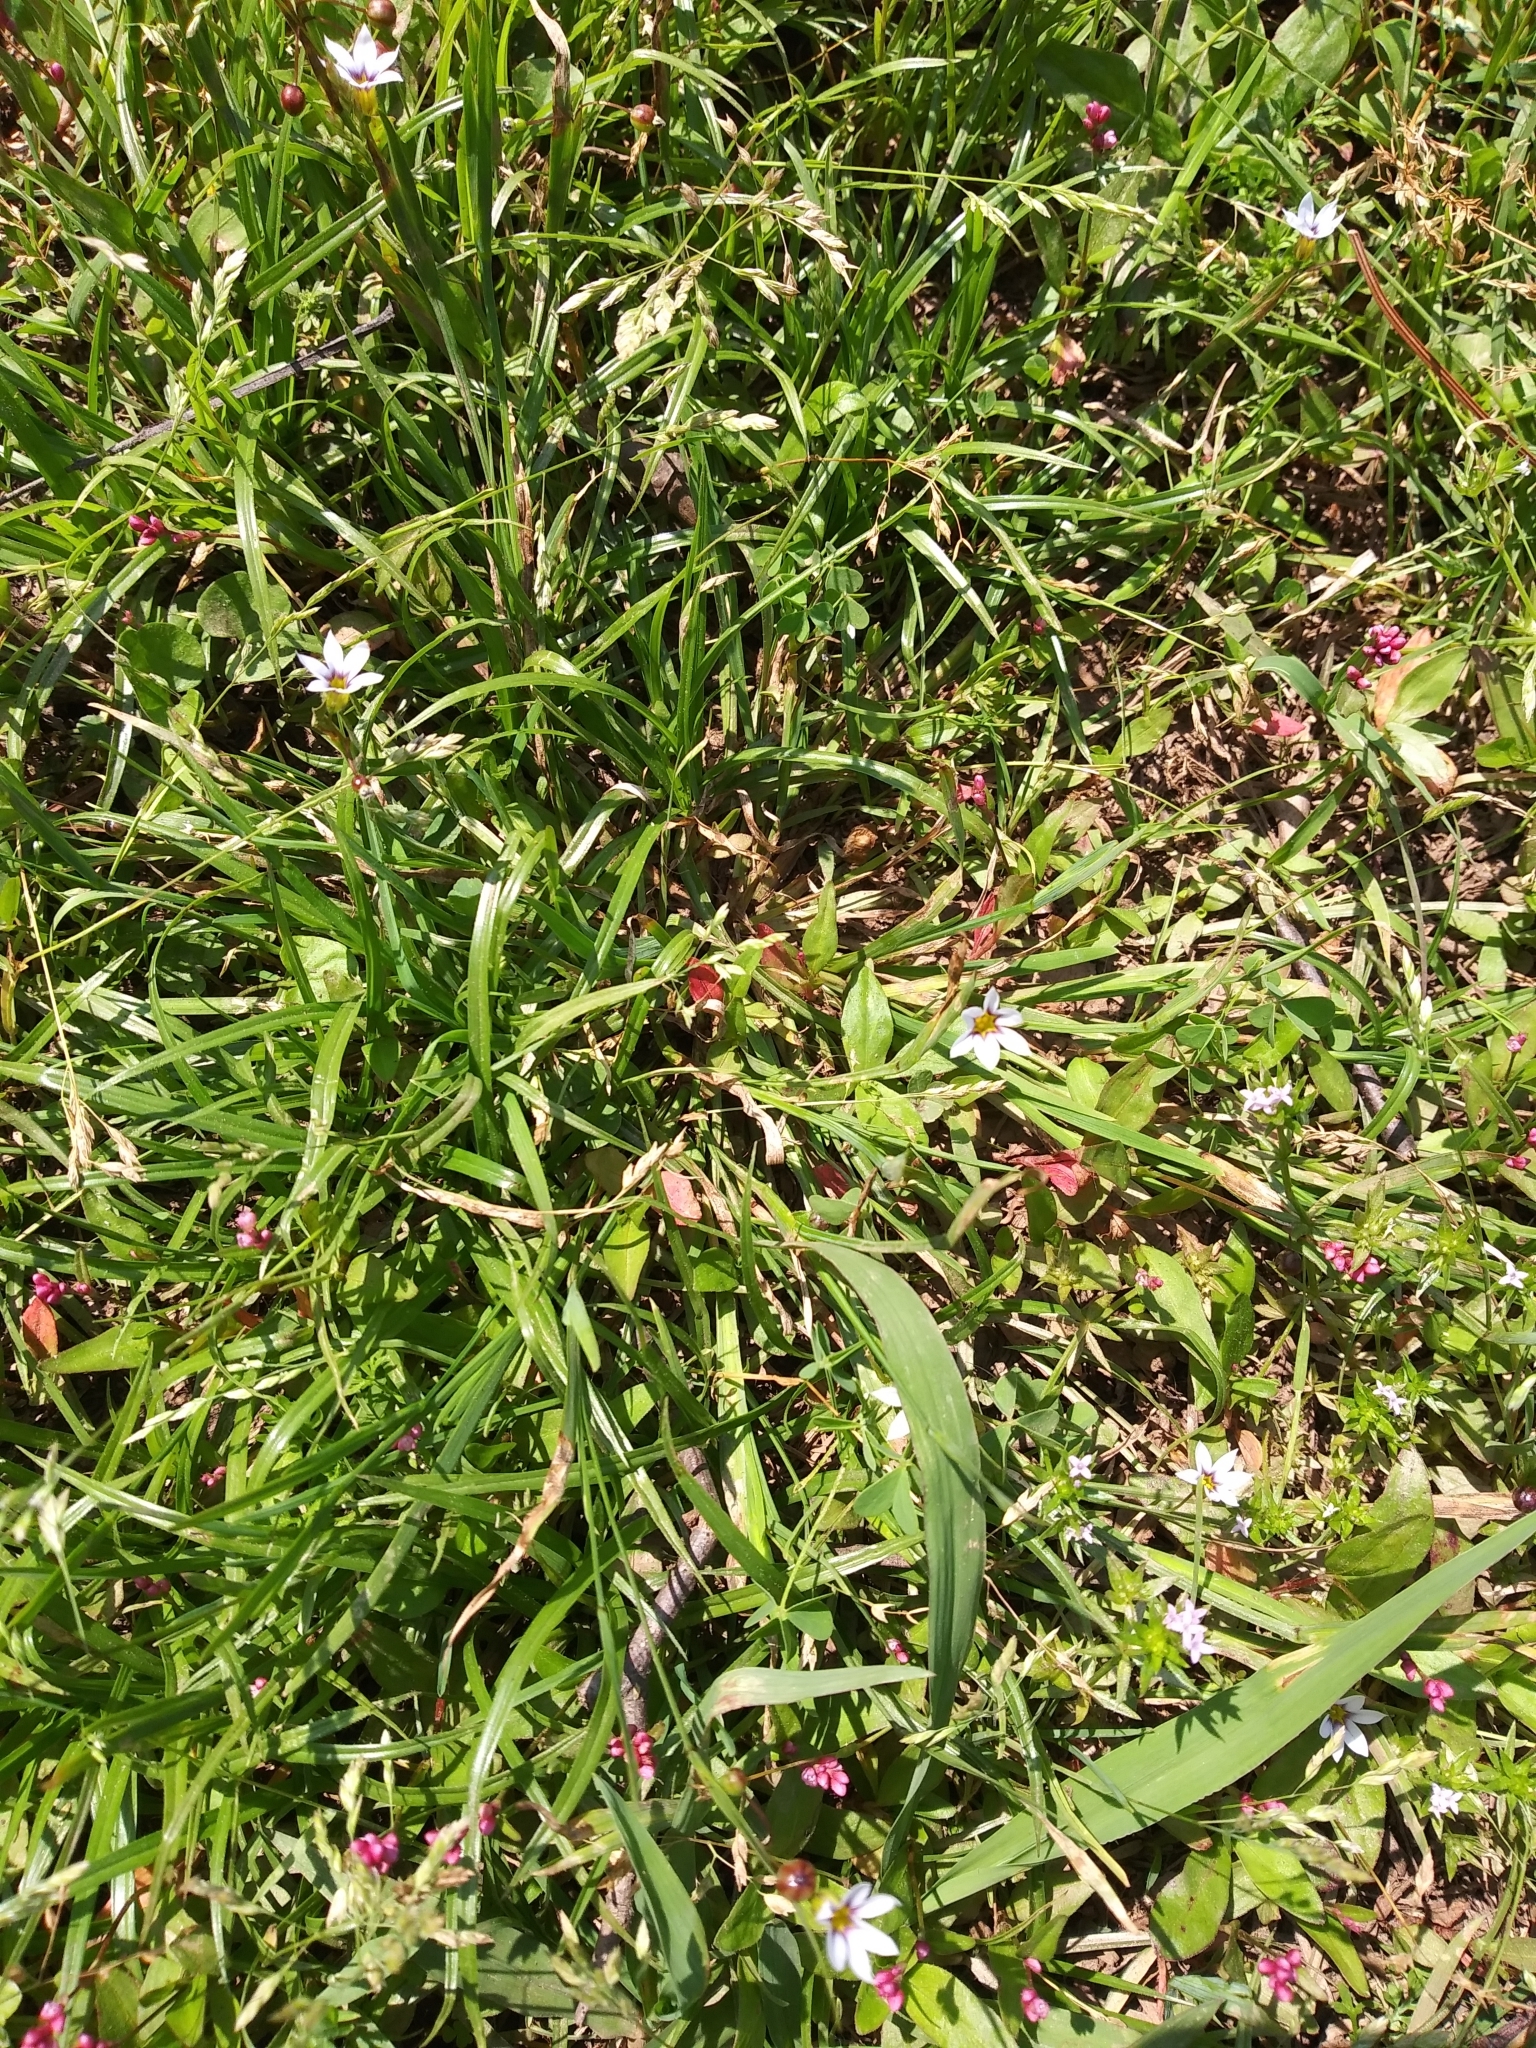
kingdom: Plantae
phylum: Tracheophyta
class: Liliopsida
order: Asparagales
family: Iridaceae
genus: Sisyrinchium
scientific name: Sisyrinchium micranthum
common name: Bermuda pigroot
